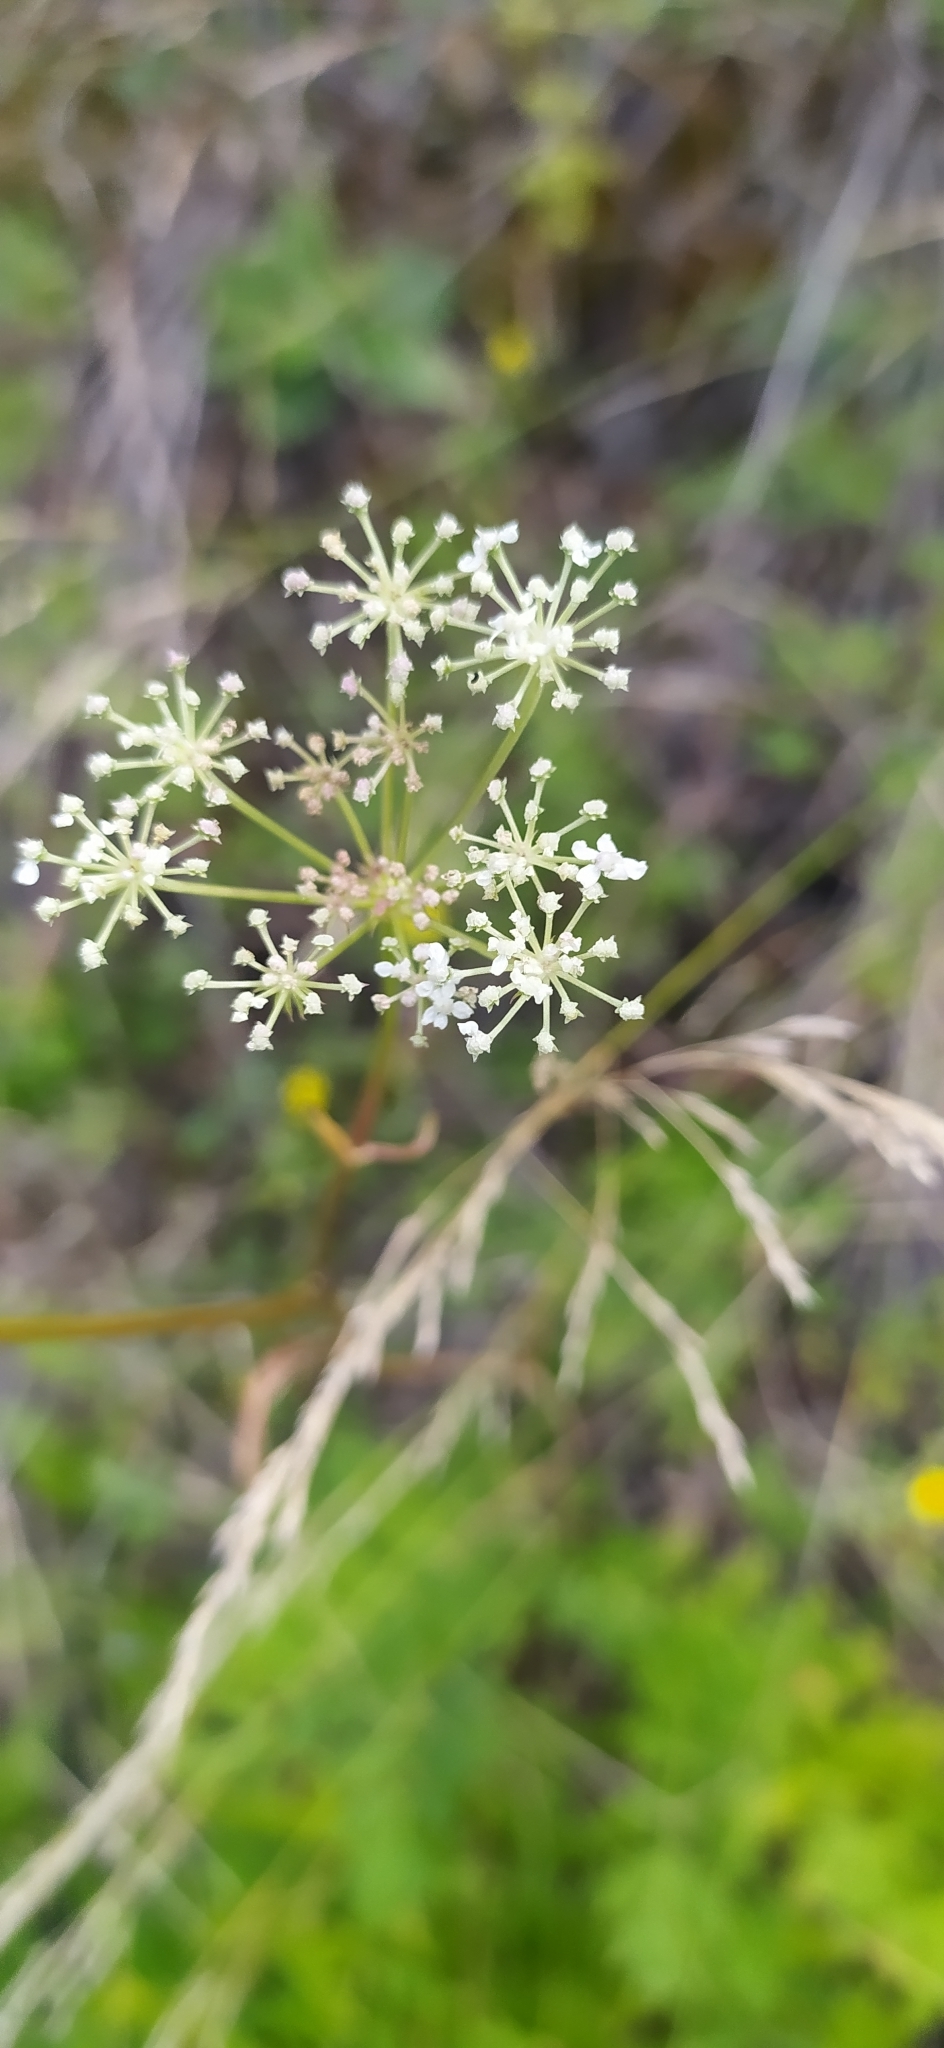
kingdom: Plantae
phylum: Tracheophyta
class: Magnoliopsida
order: Apiales
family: Apiaceae
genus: Seseli
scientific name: Seseli krylovii
